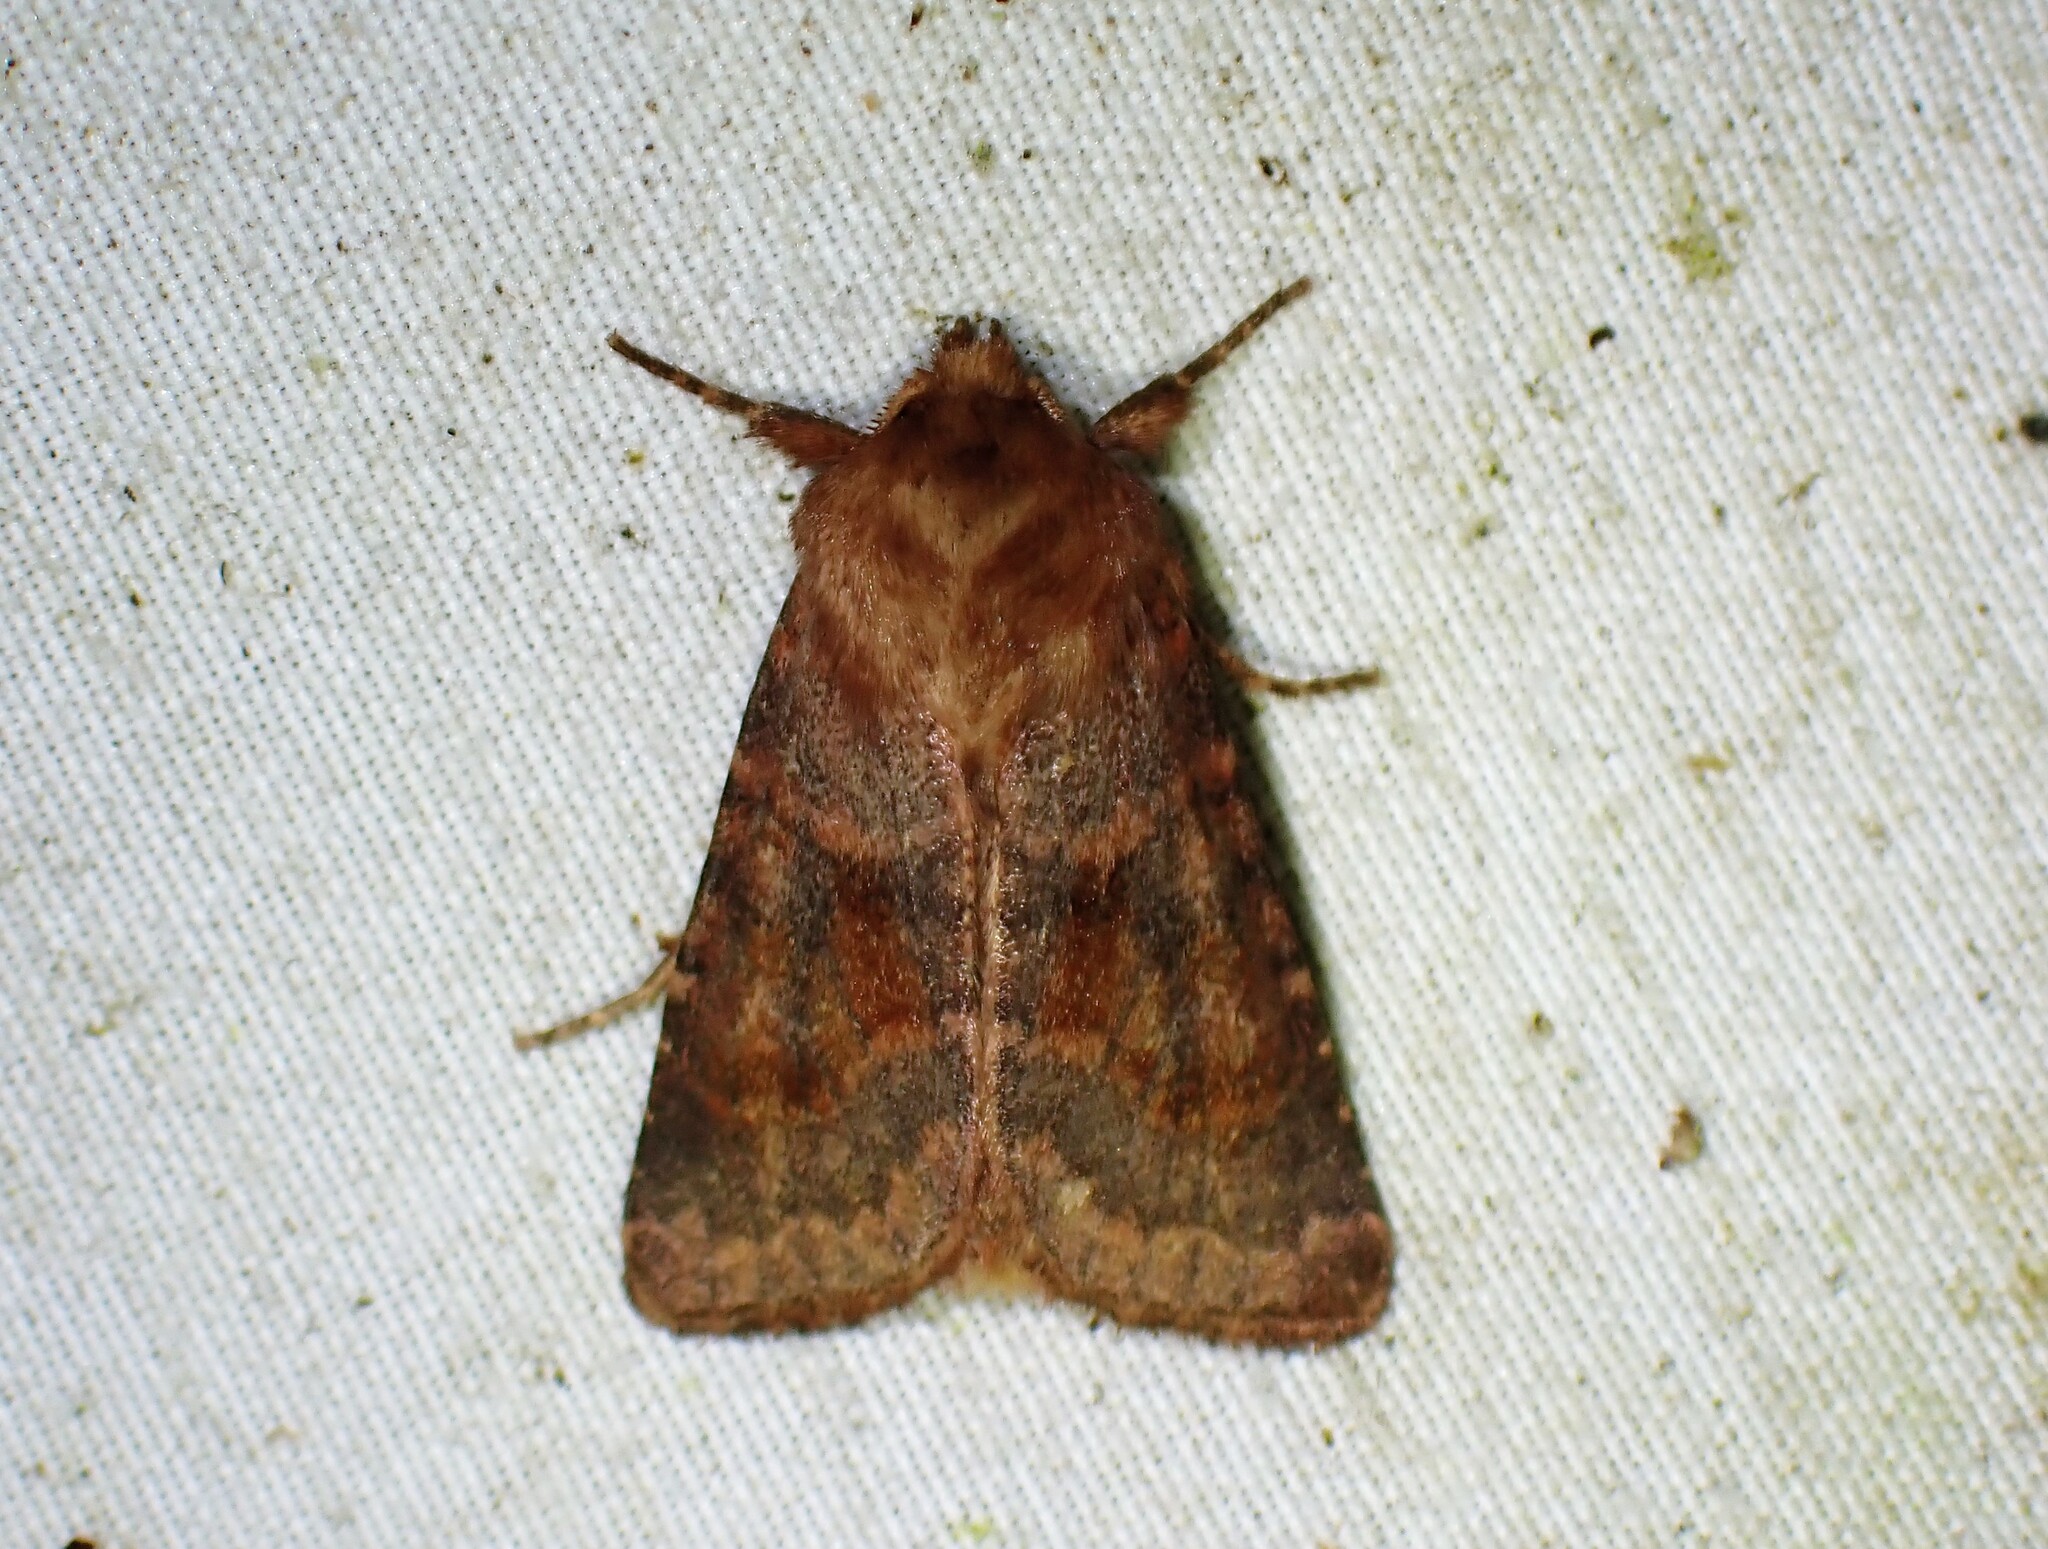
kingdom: Animalia
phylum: Arthropoda
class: Insecta
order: Lepidoptera
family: Noctuidae
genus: Nephelodes
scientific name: Nephelodes minians
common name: Bronzed cutworm
